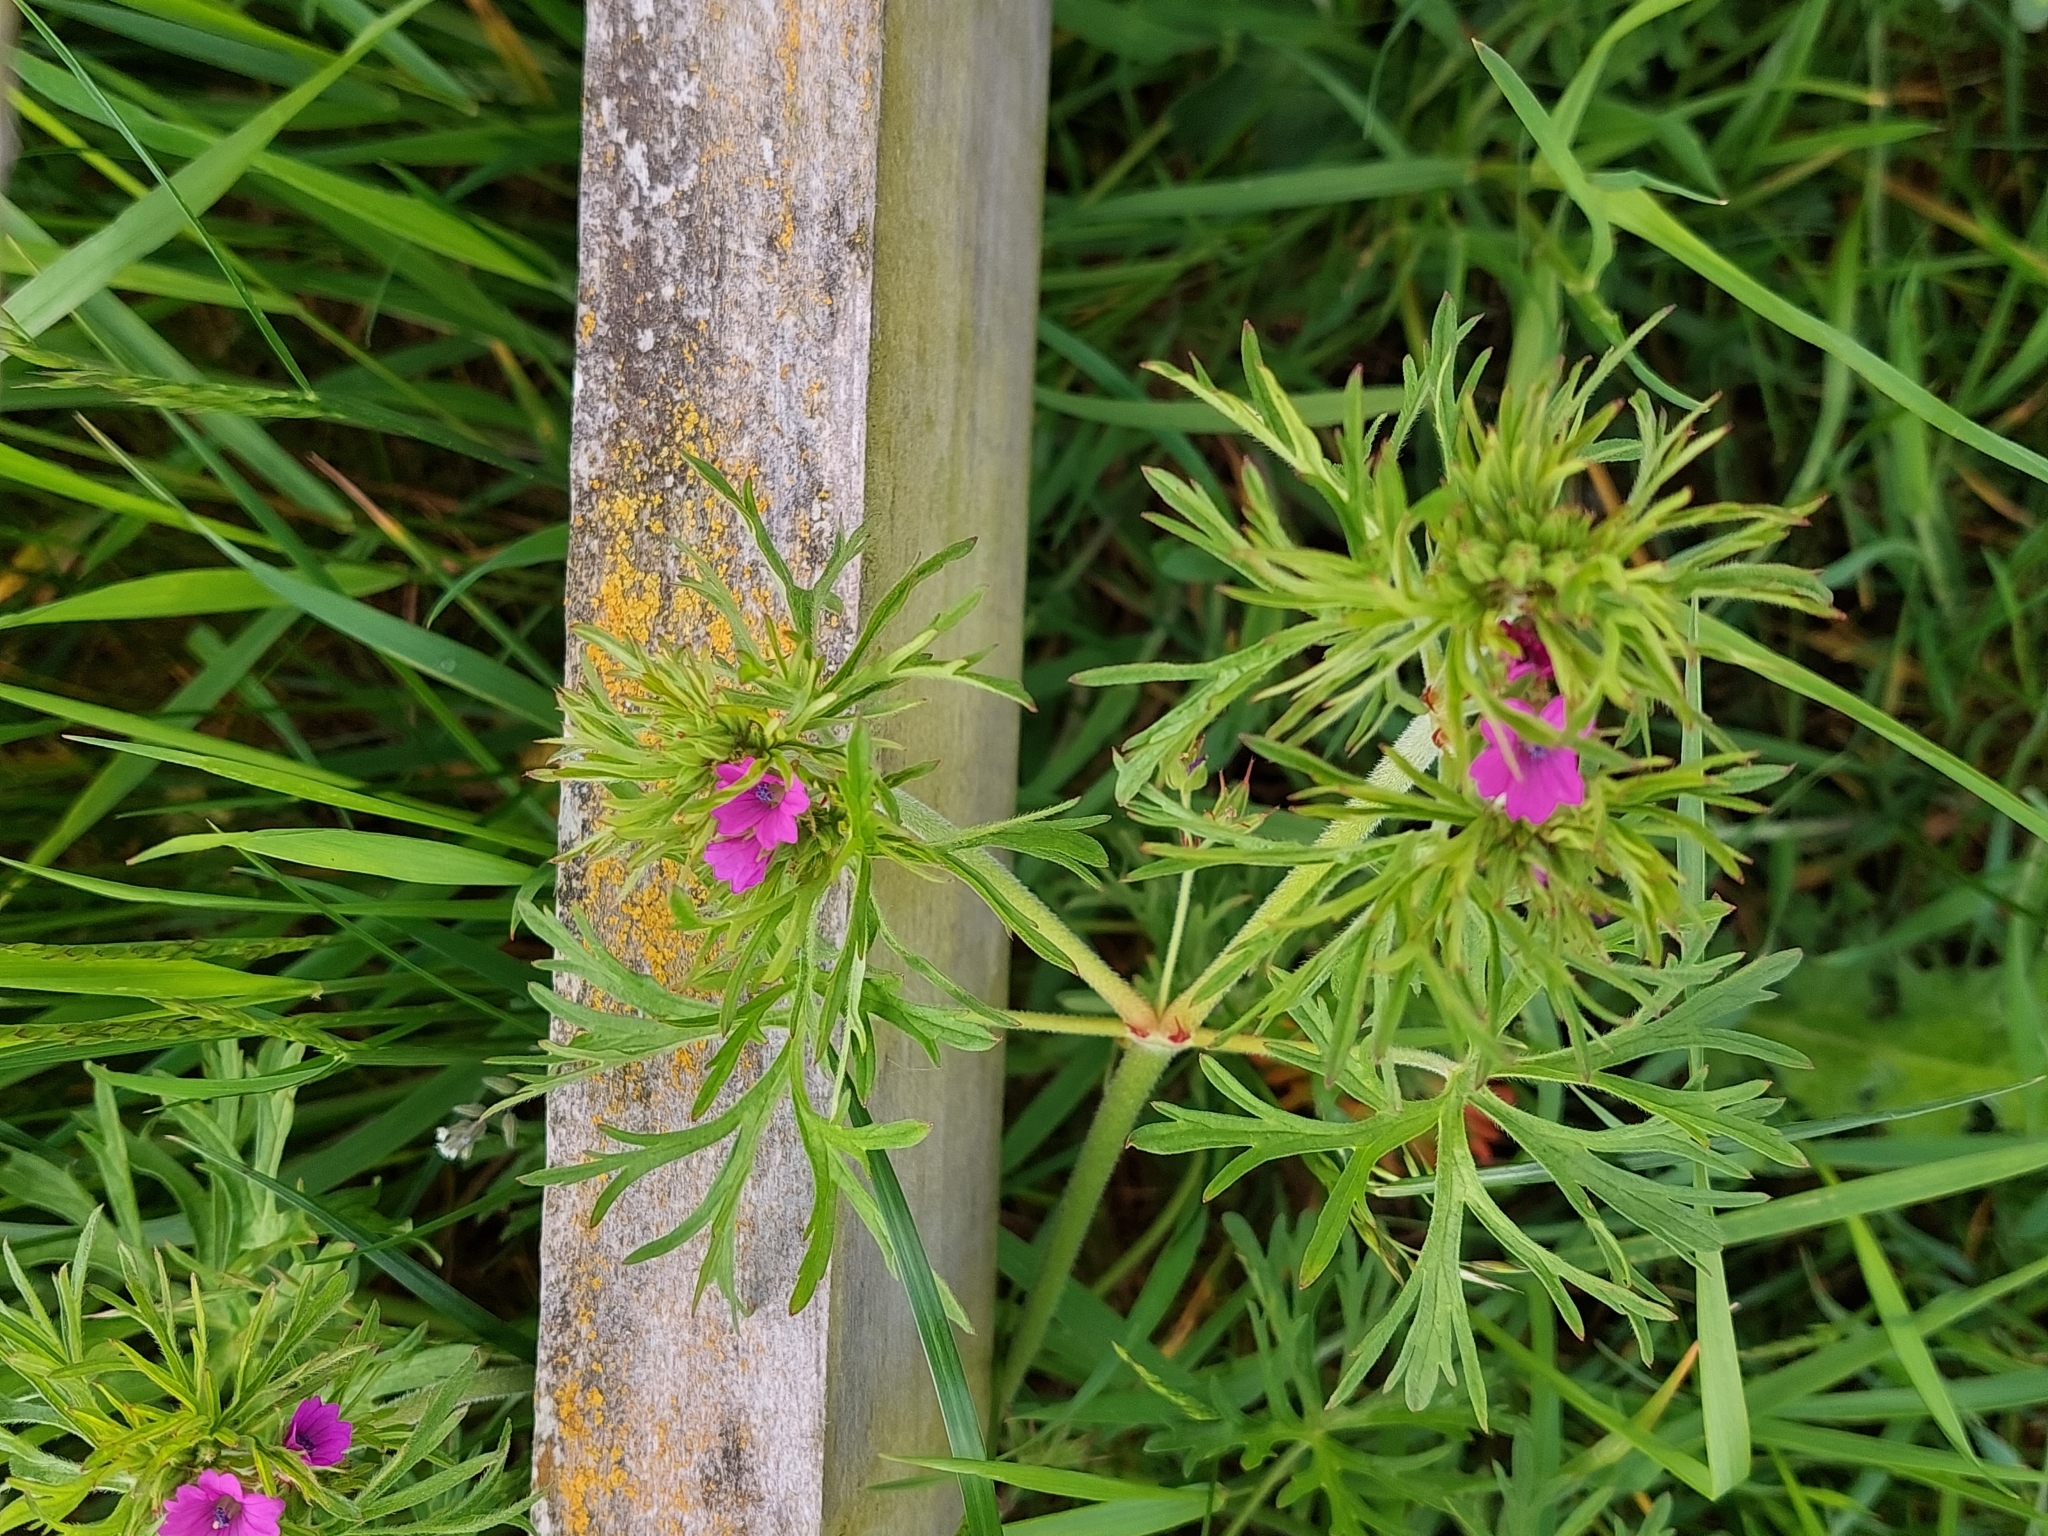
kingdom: Plantae
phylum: Tracheophyta
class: Magnoliopsida
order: Geraniales
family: Geraniaceae
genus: Geranium
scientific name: Geranium dissectum
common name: Cut-leaved crane's-bill
